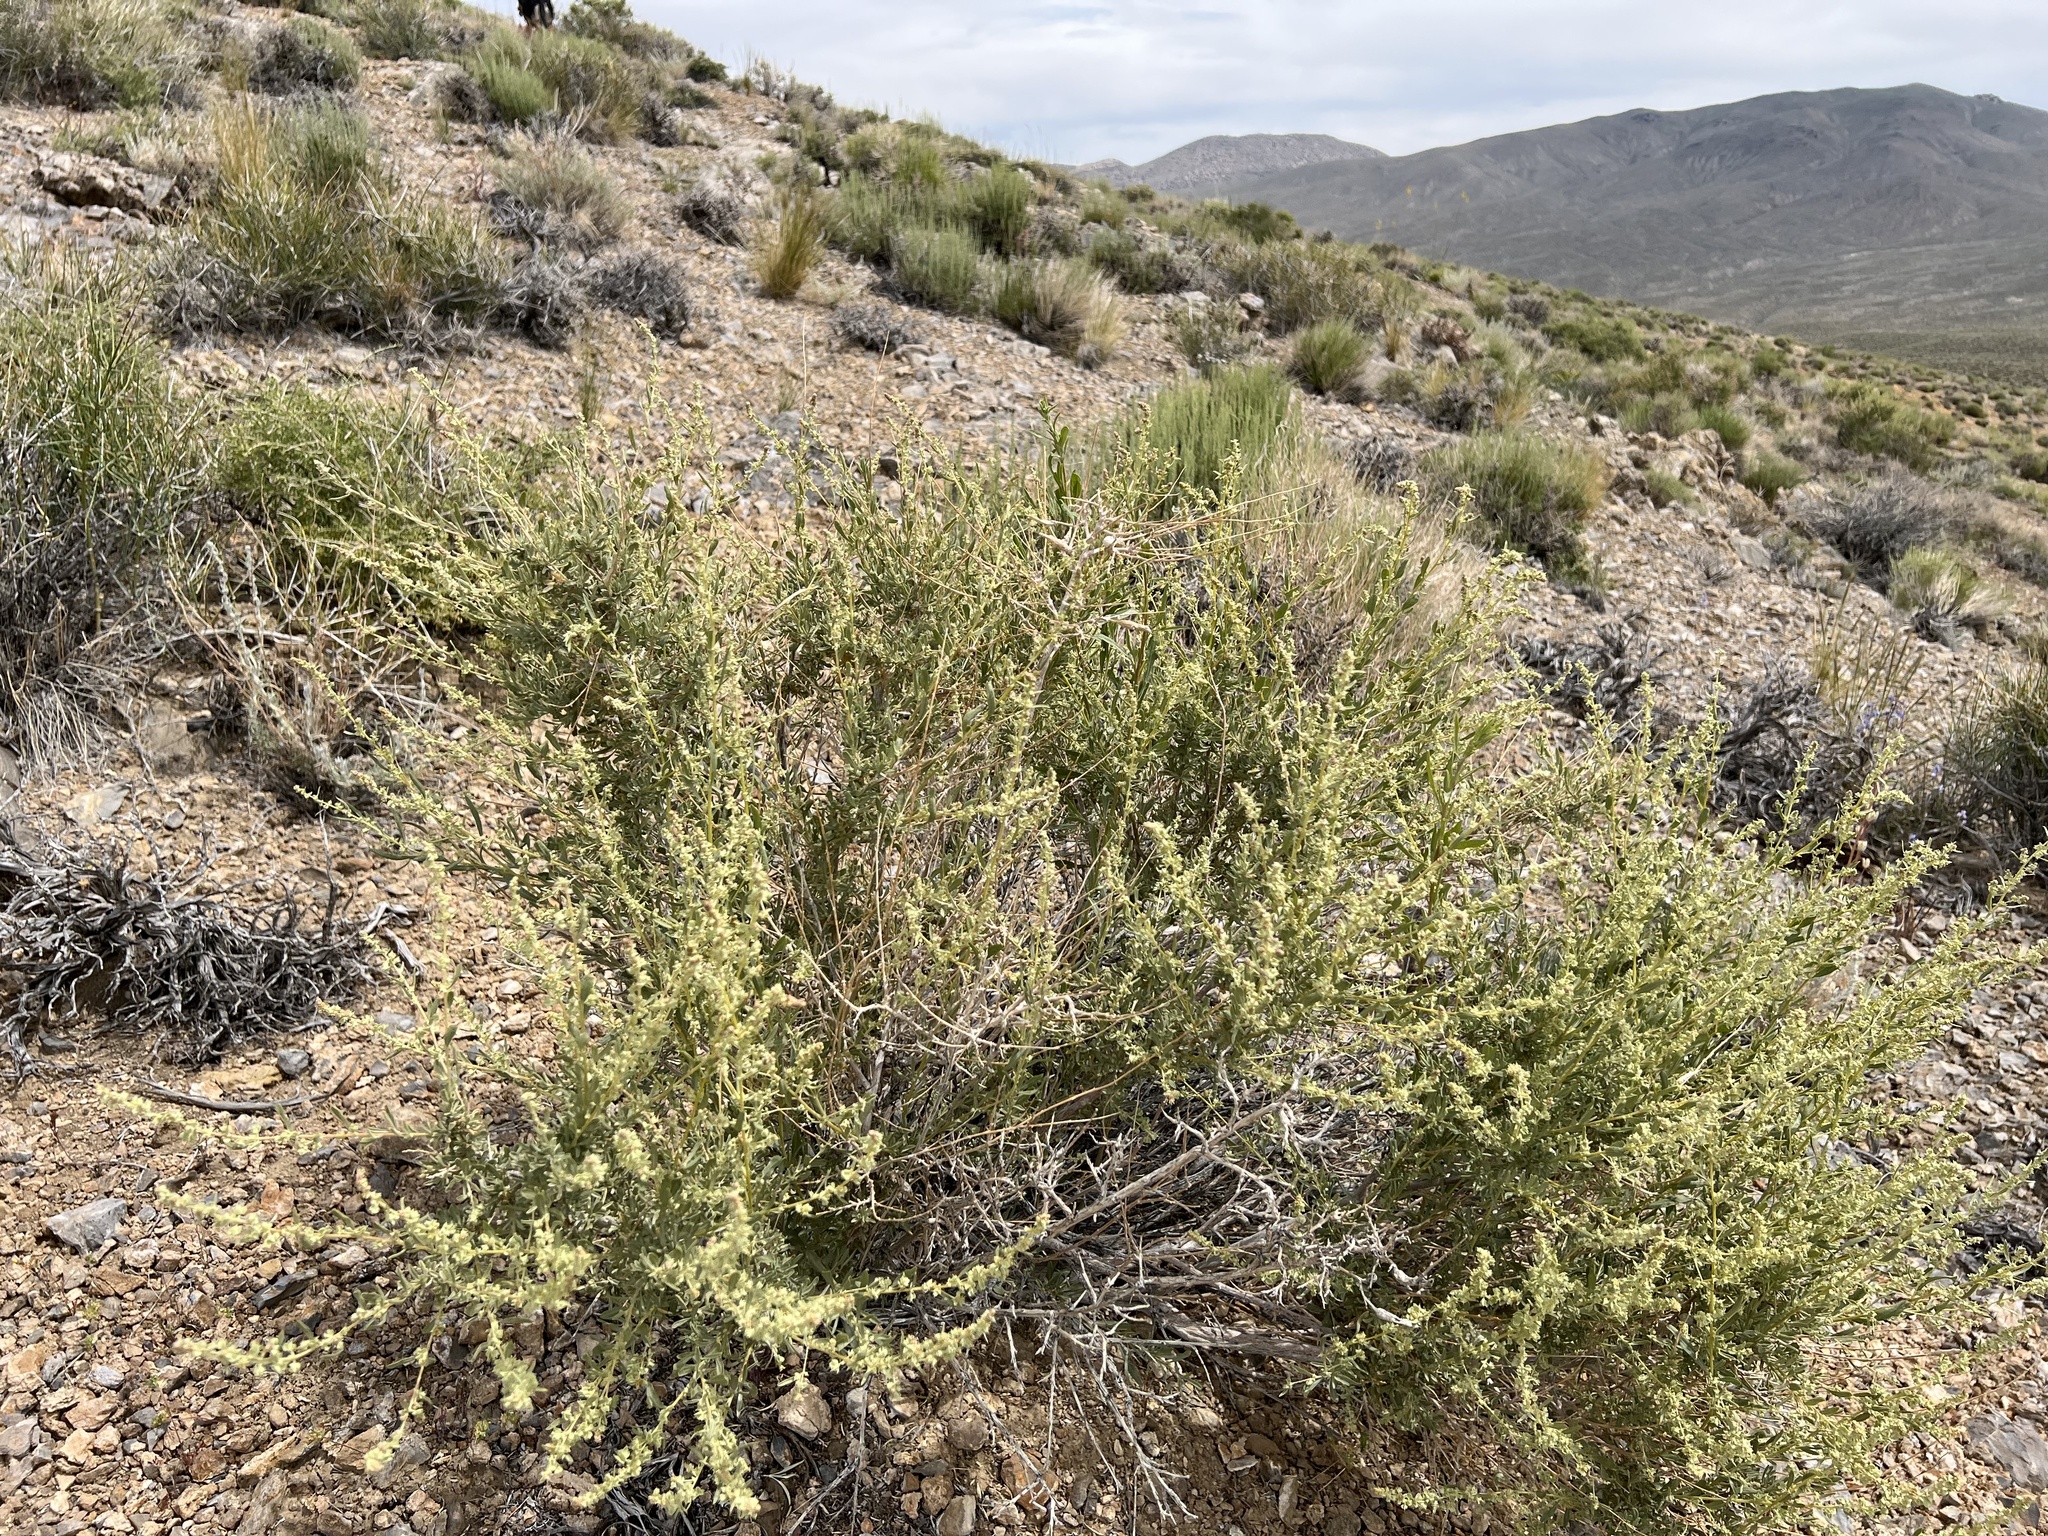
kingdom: Plantae
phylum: Tracheophyta
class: Magnoliopsida
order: Caryophyllales
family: Amaranthaceae
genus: Atriplex
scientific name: Atriplex canescens
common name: Four-wing saltbush
